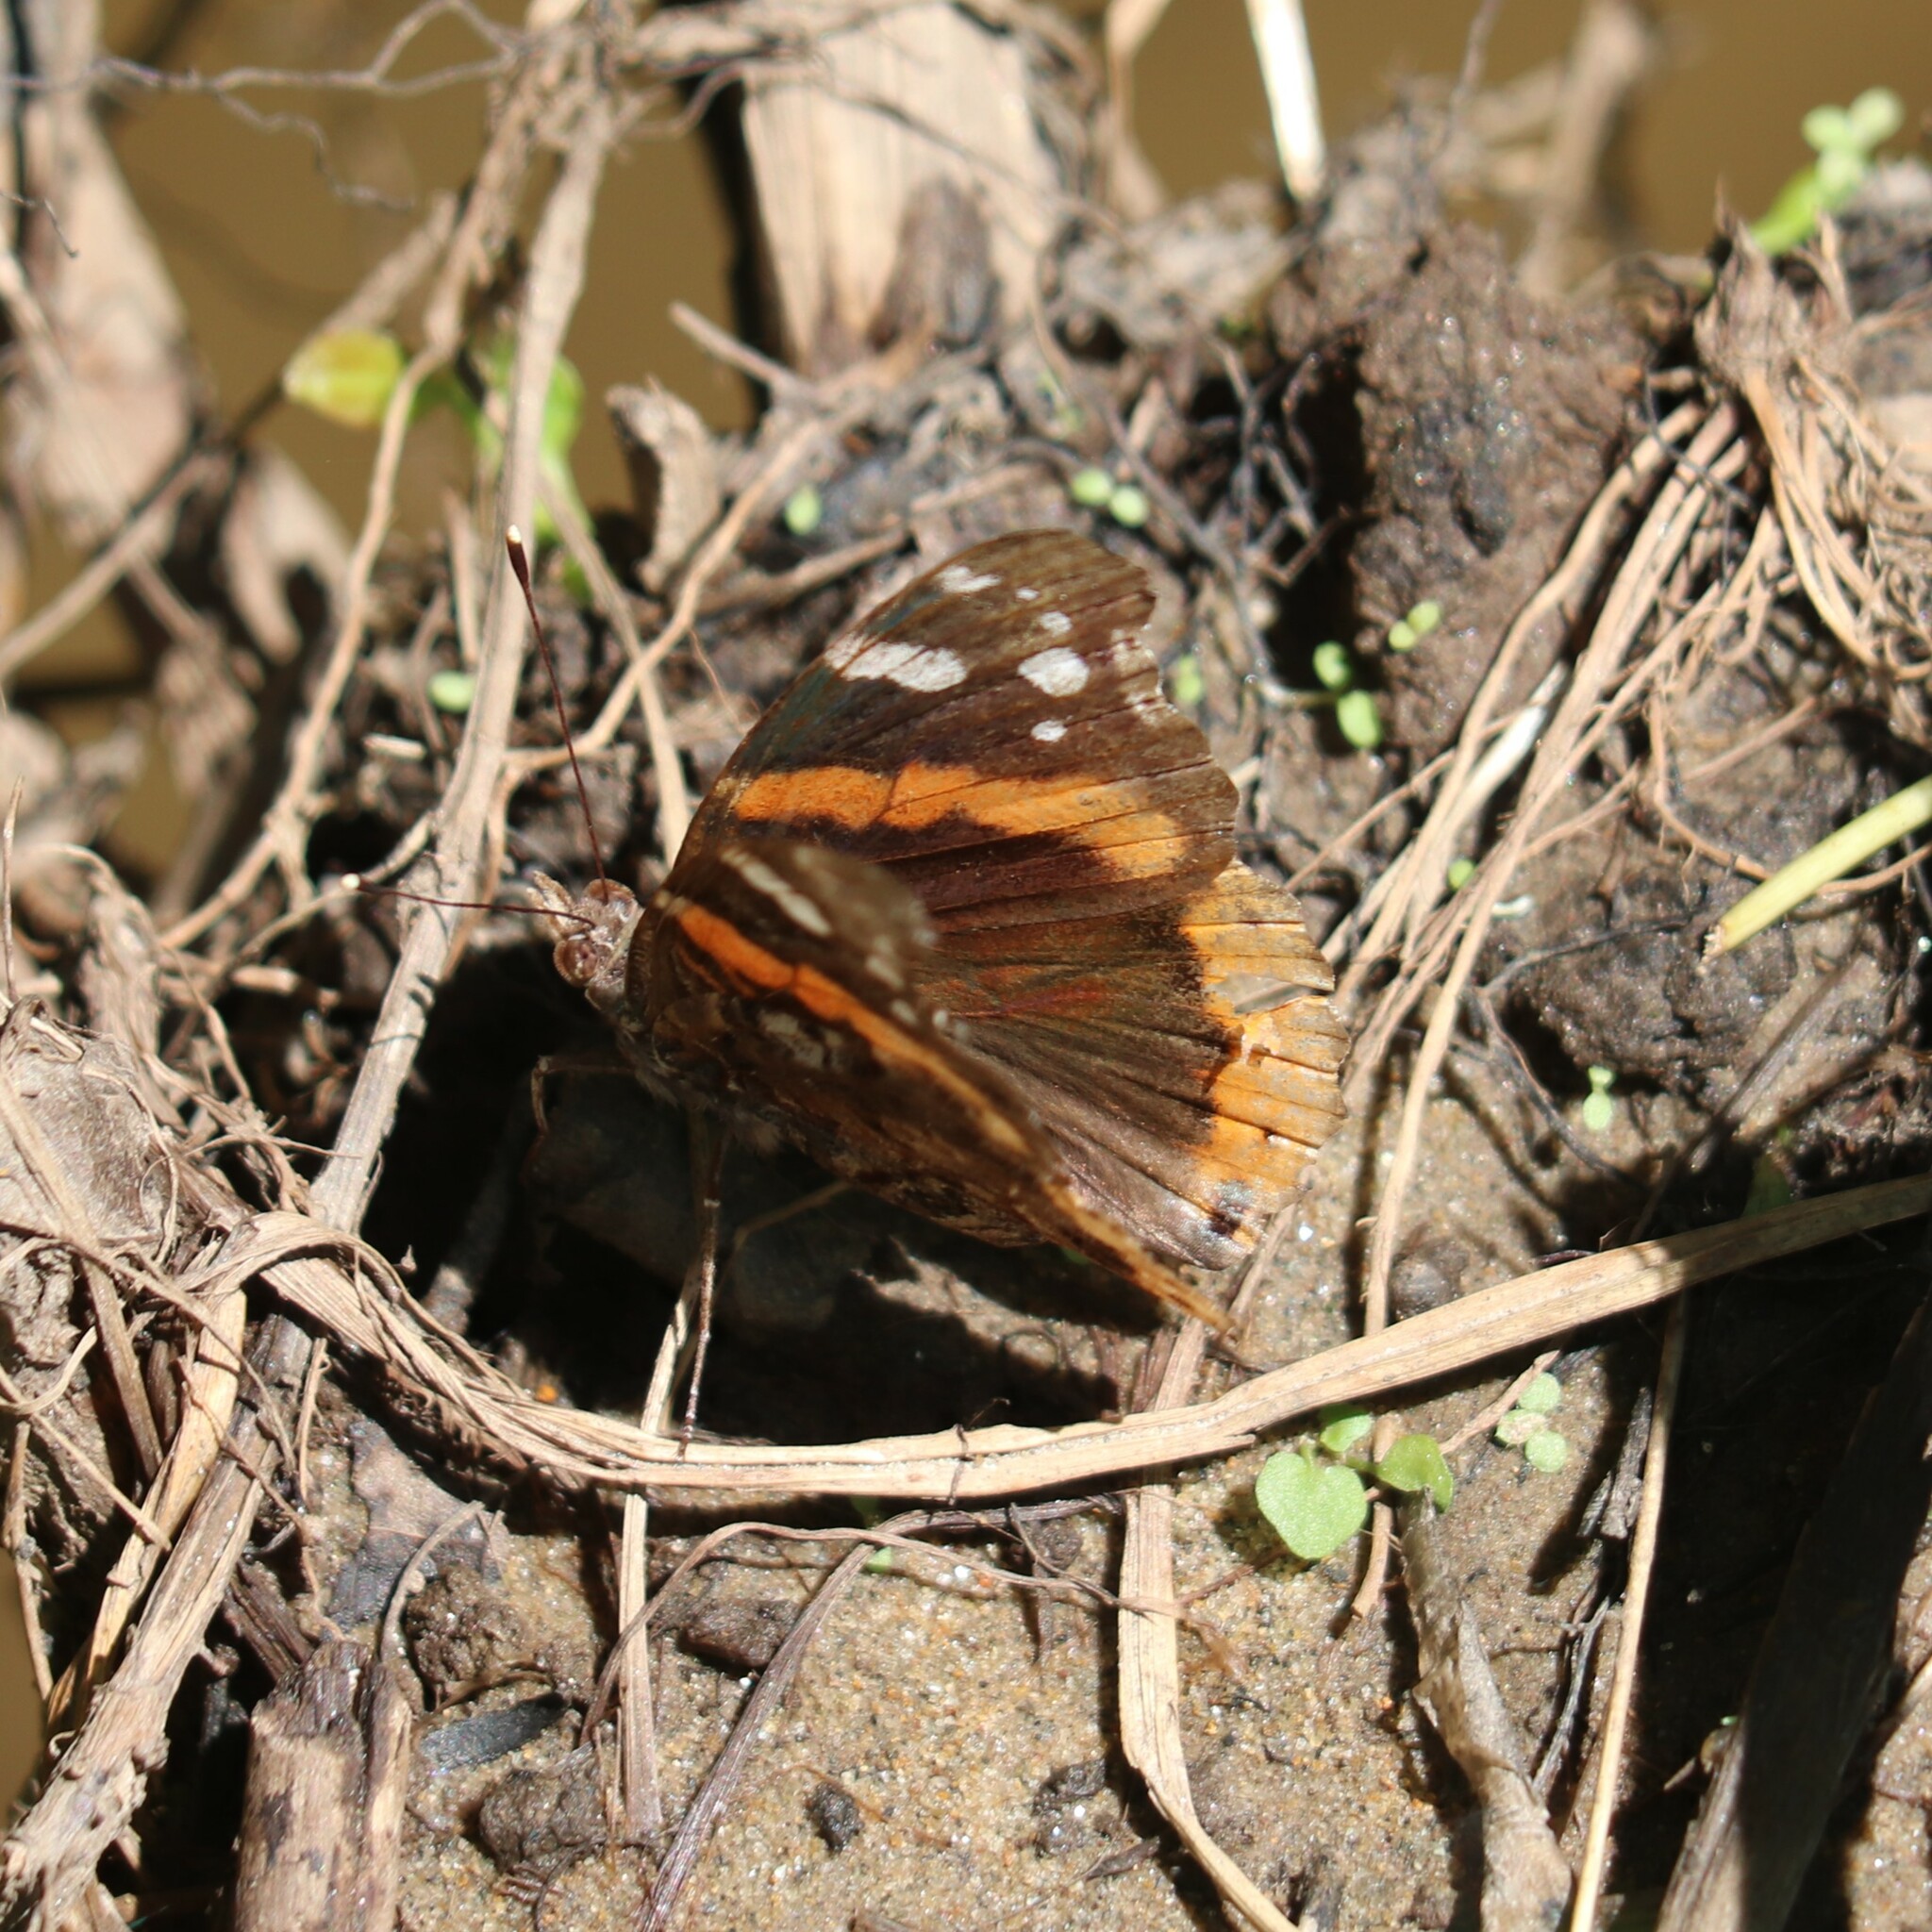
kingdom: Animalia
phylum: Arthropoda
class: Insecta
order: Lepidoptera
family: Nymphalidae
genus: Vanessa
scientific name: Vanessa atalanta
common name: Red admiral
